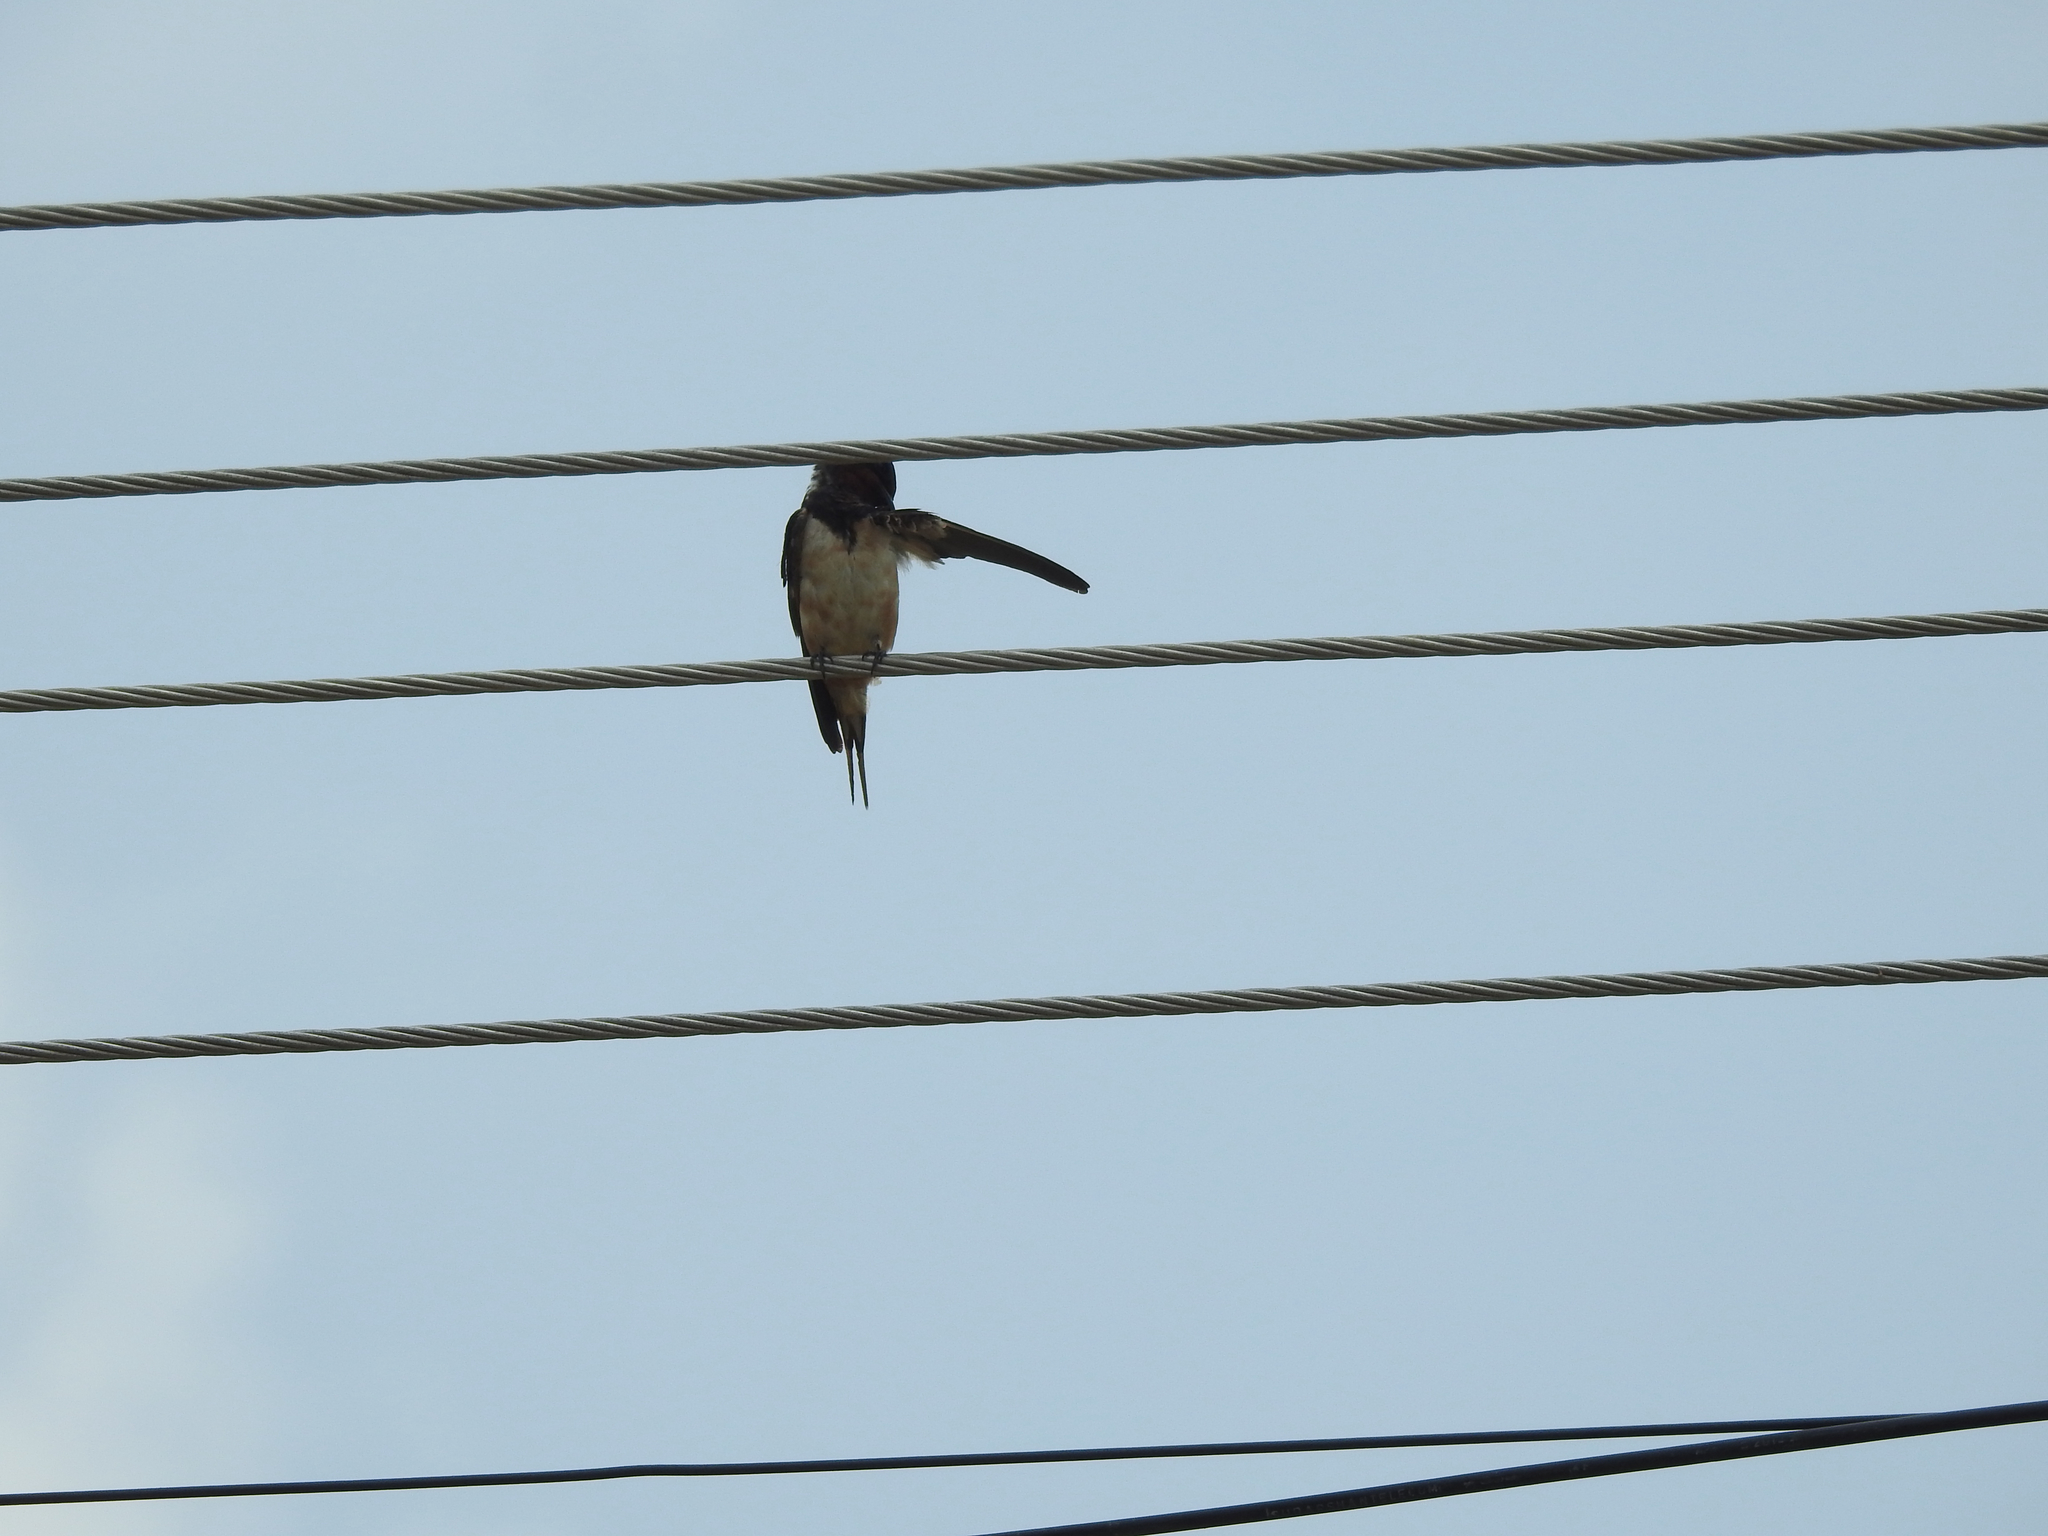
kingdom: Animalia
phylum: Chordata
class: Aves
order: Passeriformes
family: Hirundinidae
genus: Hirundo
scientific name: Hirundo rustica
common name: Barn swallow
